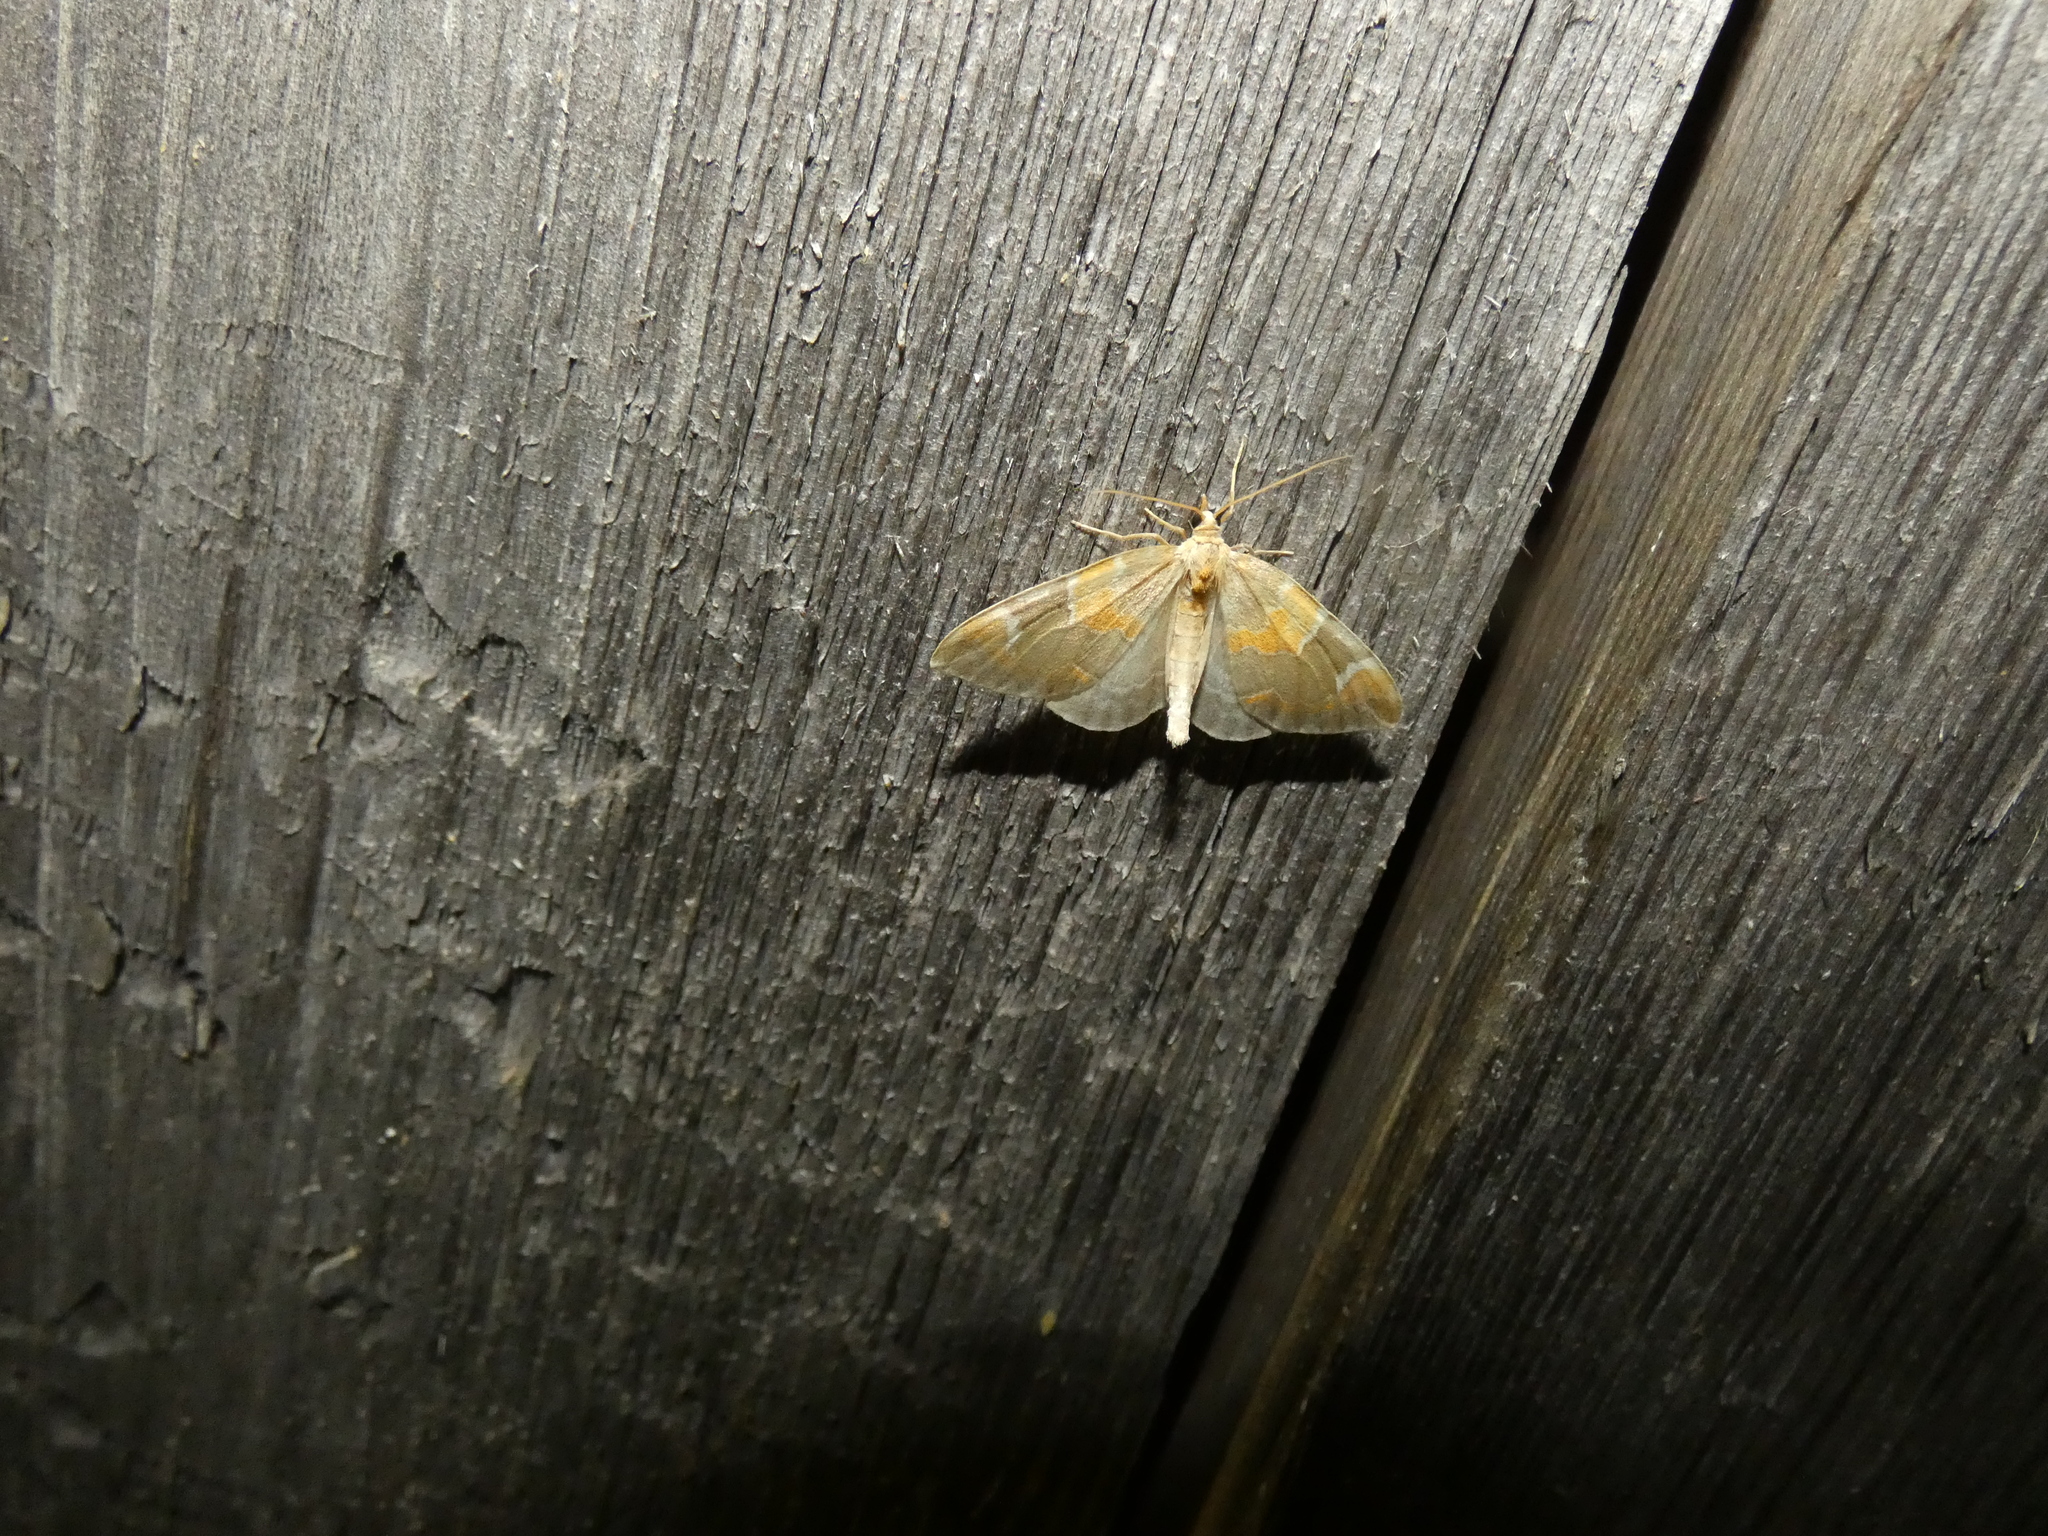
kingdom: Animalia
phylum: Arthropoda
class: Insecta
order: Lepidoptera
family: Geometridae
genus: Eulithis
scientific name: Eulithis pyropata
